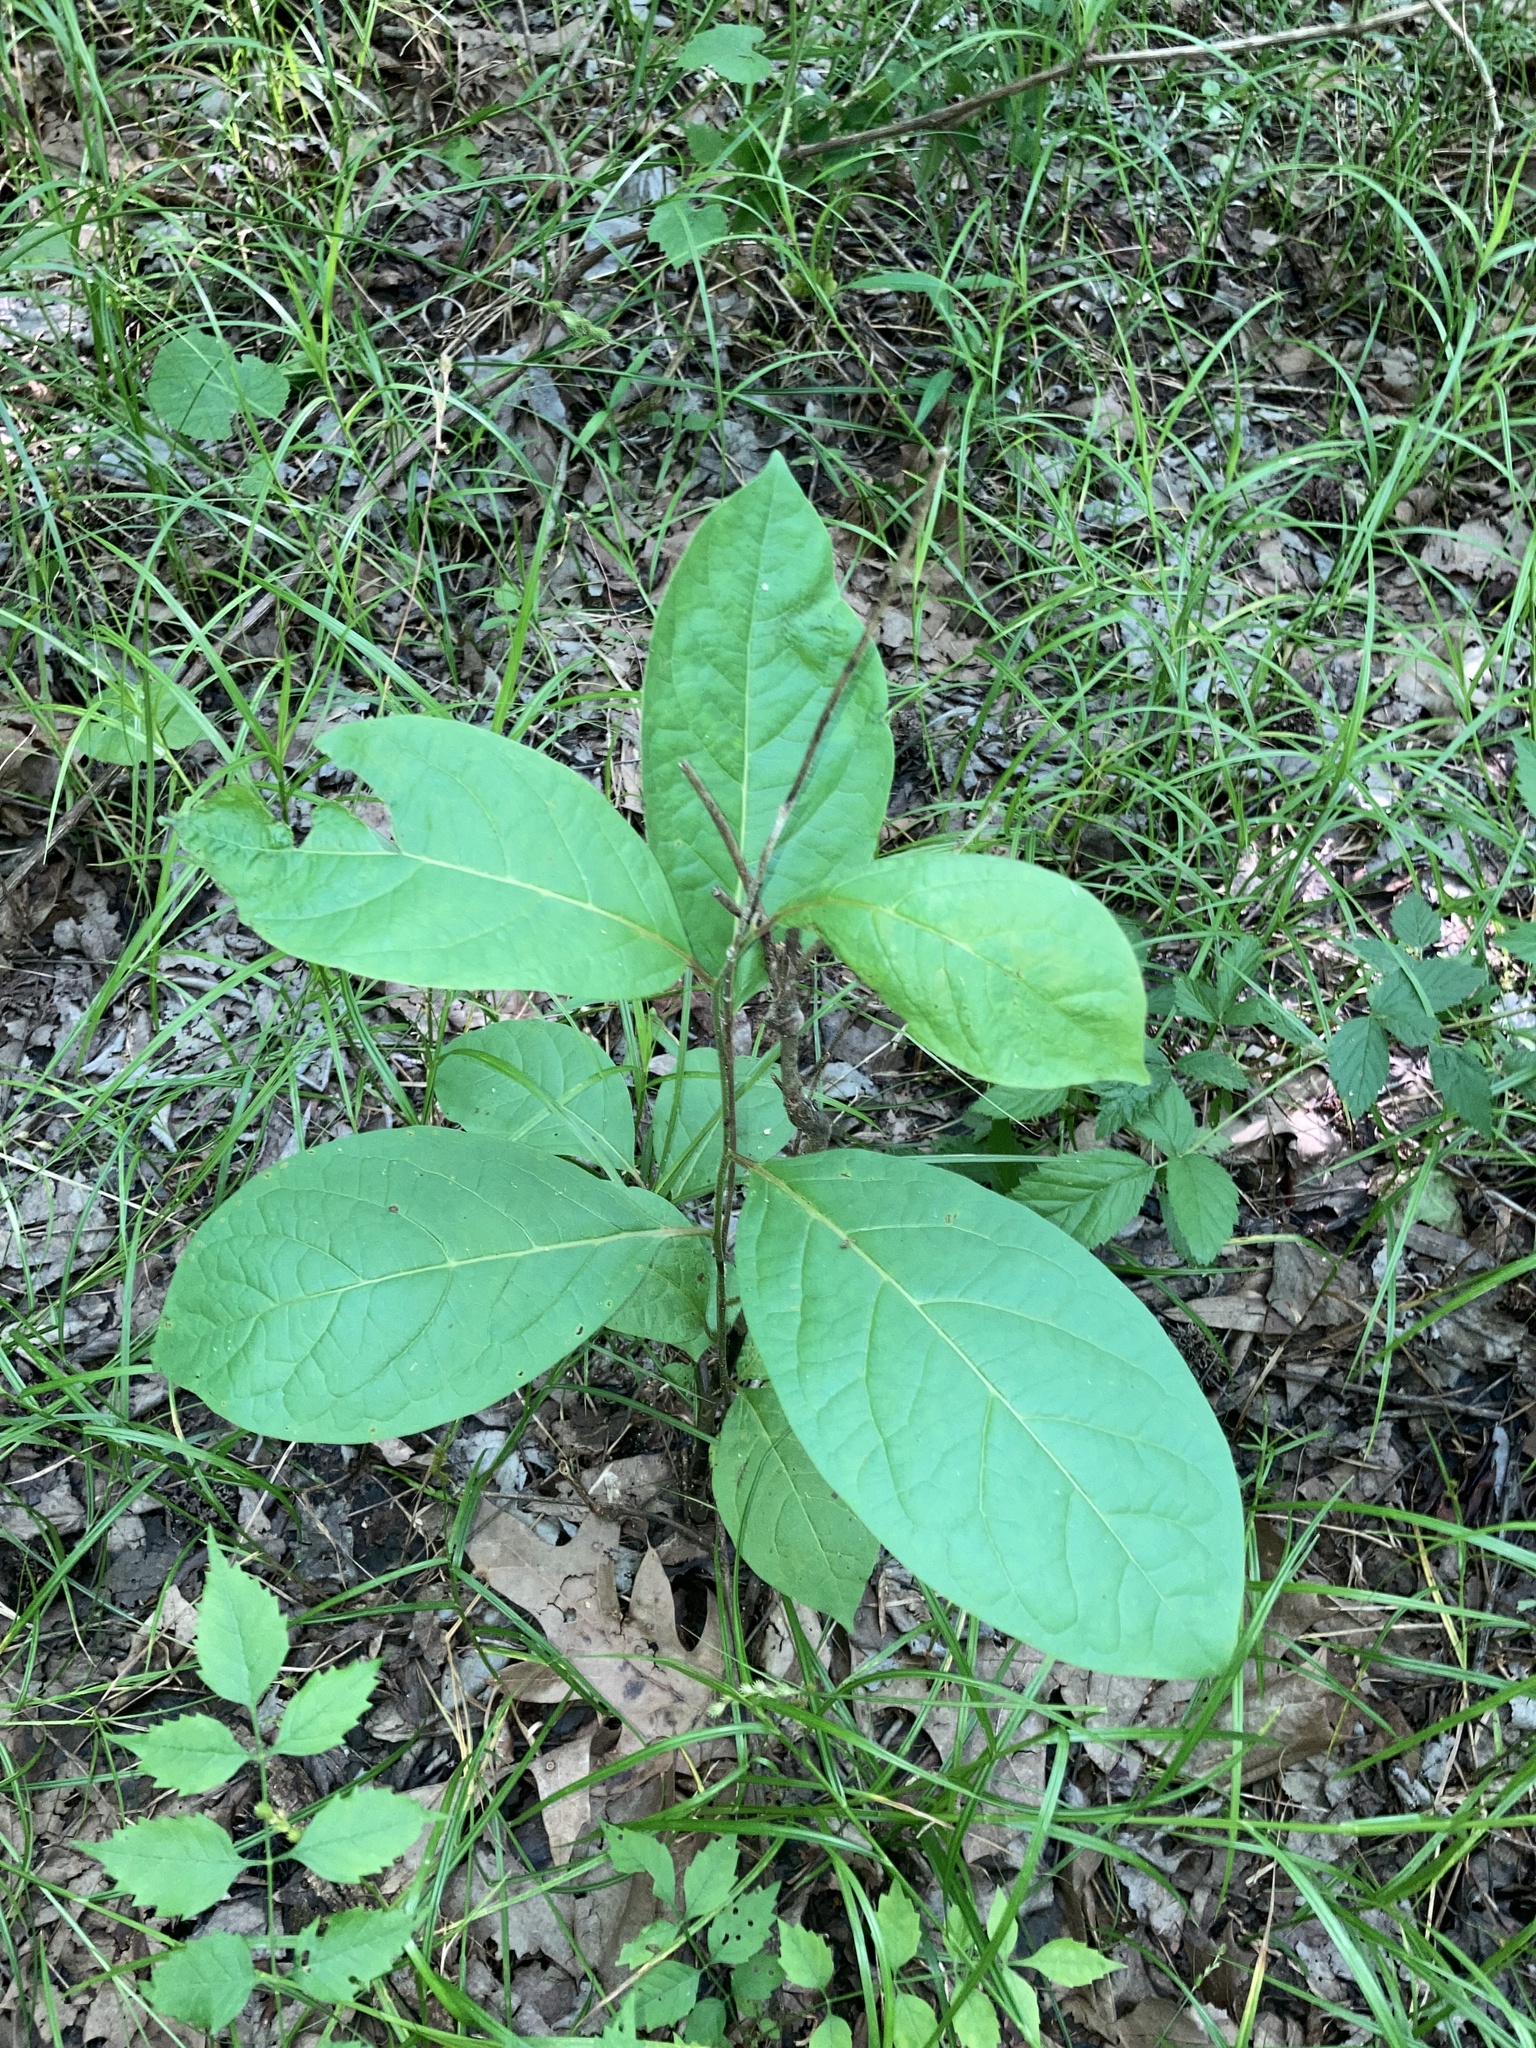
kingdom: Plantae
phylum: Tracheophyta
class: Magnoliopsida
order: Ericales
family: Ebenaceae
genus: Diospyros
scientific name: Diospyros virginiana
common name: Persimmon
